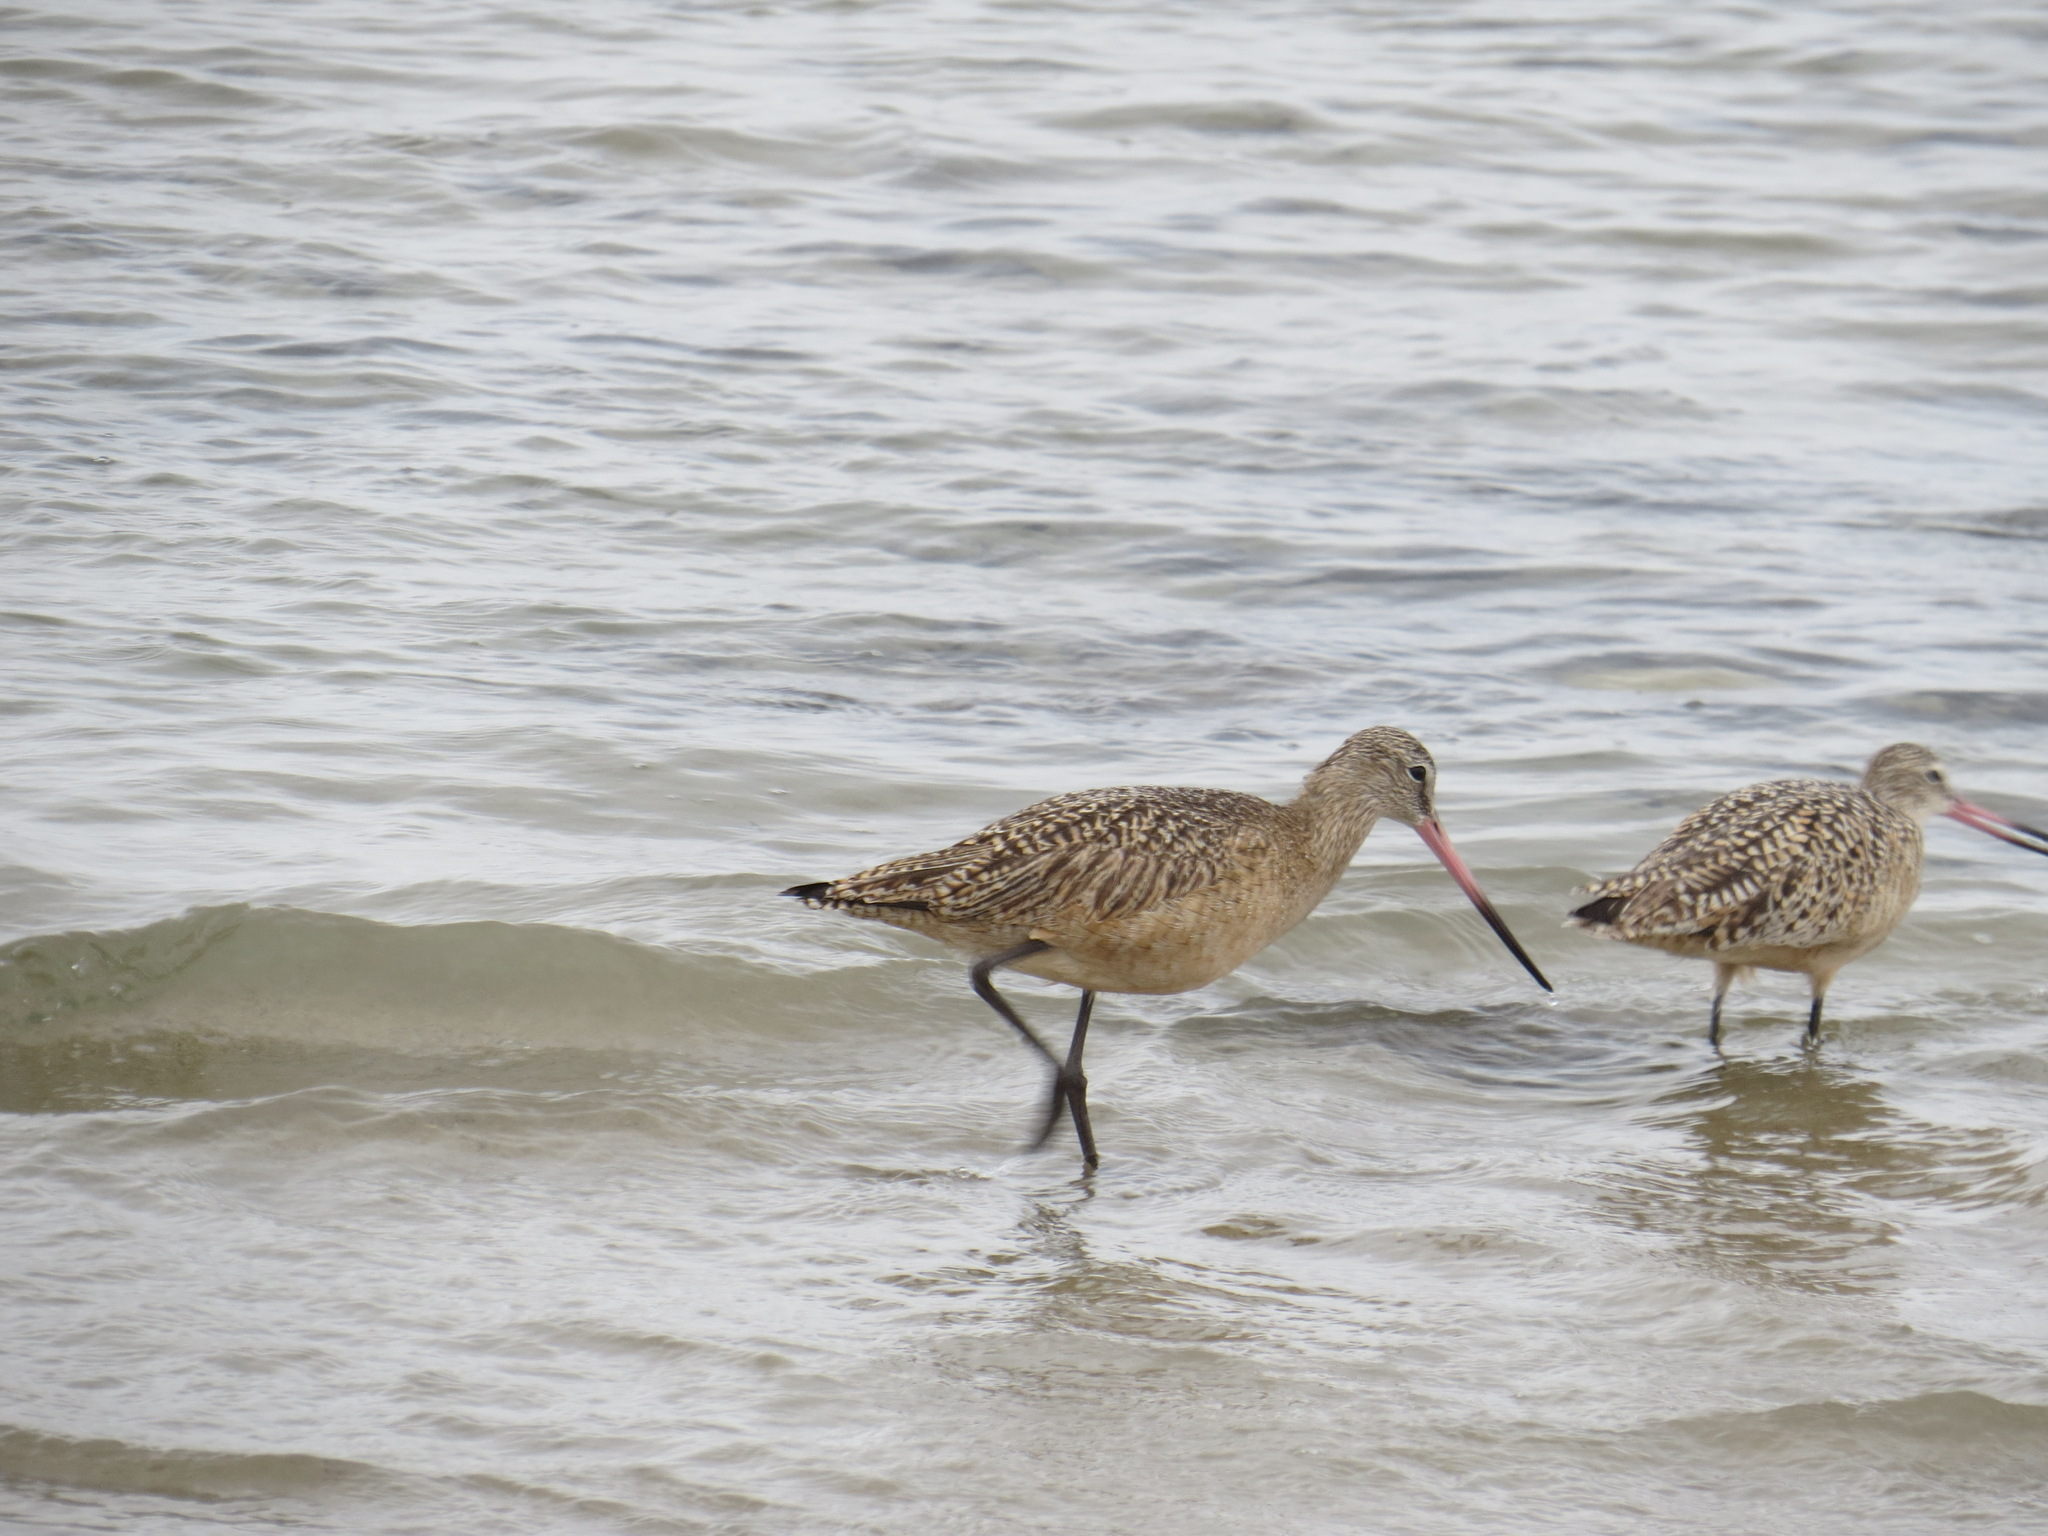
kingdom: Animalia
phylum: Chordata
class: Aves
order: Charadriiformes
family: Scolopacidae
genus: Limosa
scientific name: Limosa fedoa
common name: Marbled godwit
